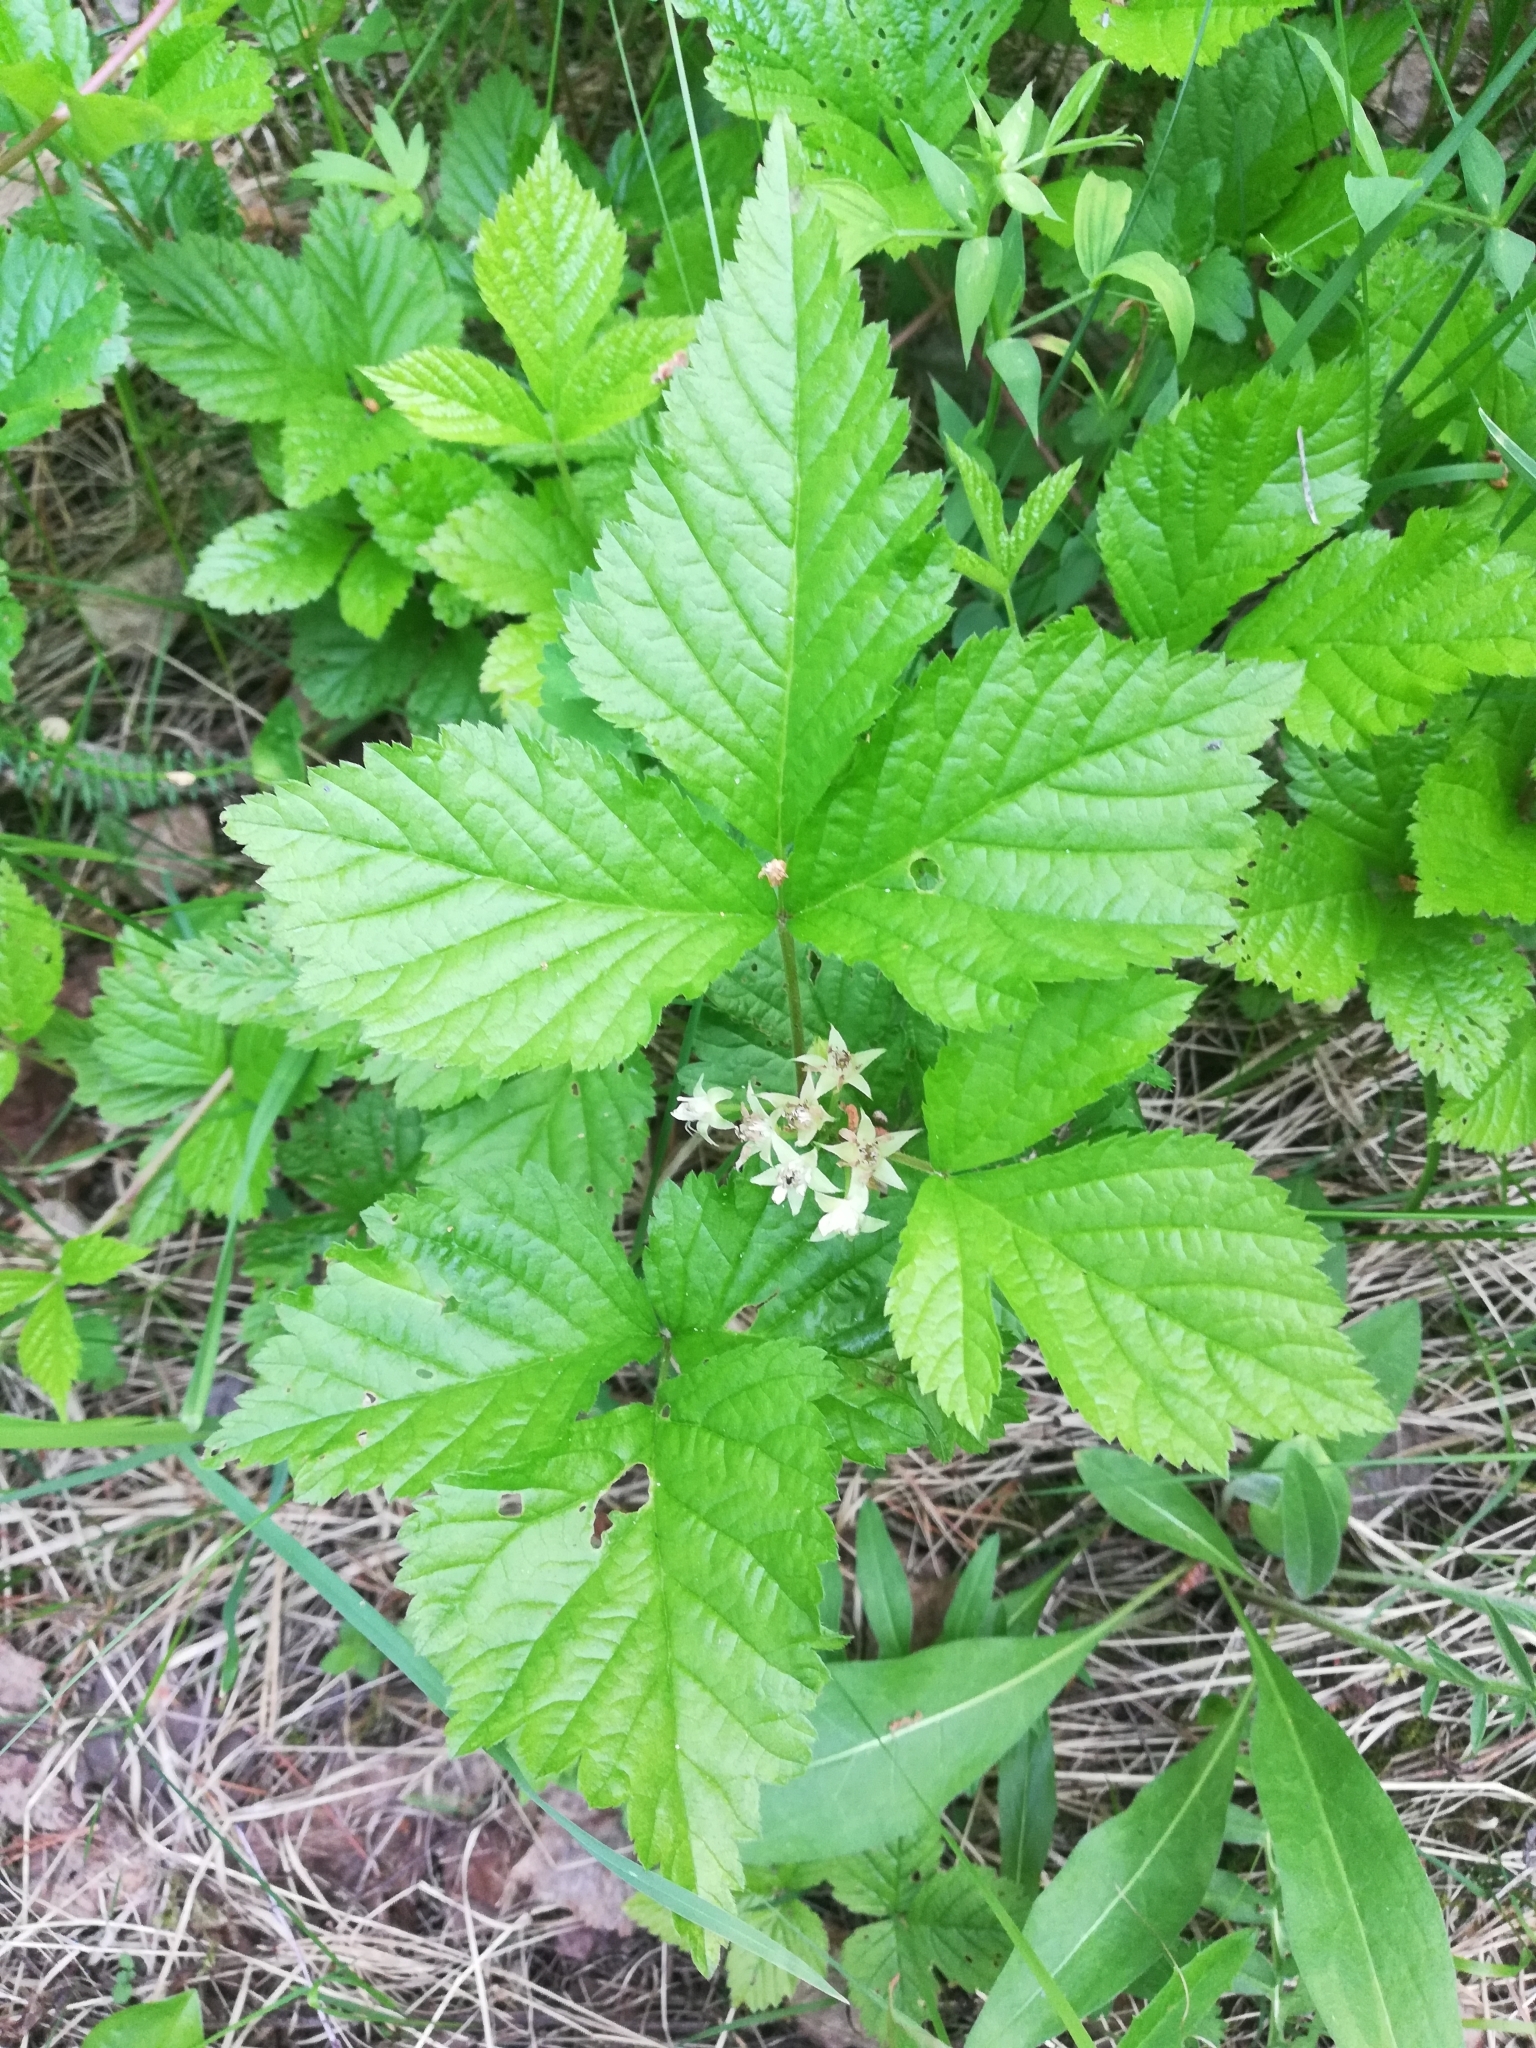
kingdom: Plantae
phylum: Tracheophyta
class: Magnoliopsida
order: Rosales
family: Rosaceae
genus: Rubus
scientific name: Rubus saxatilis
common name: Stone bramble
